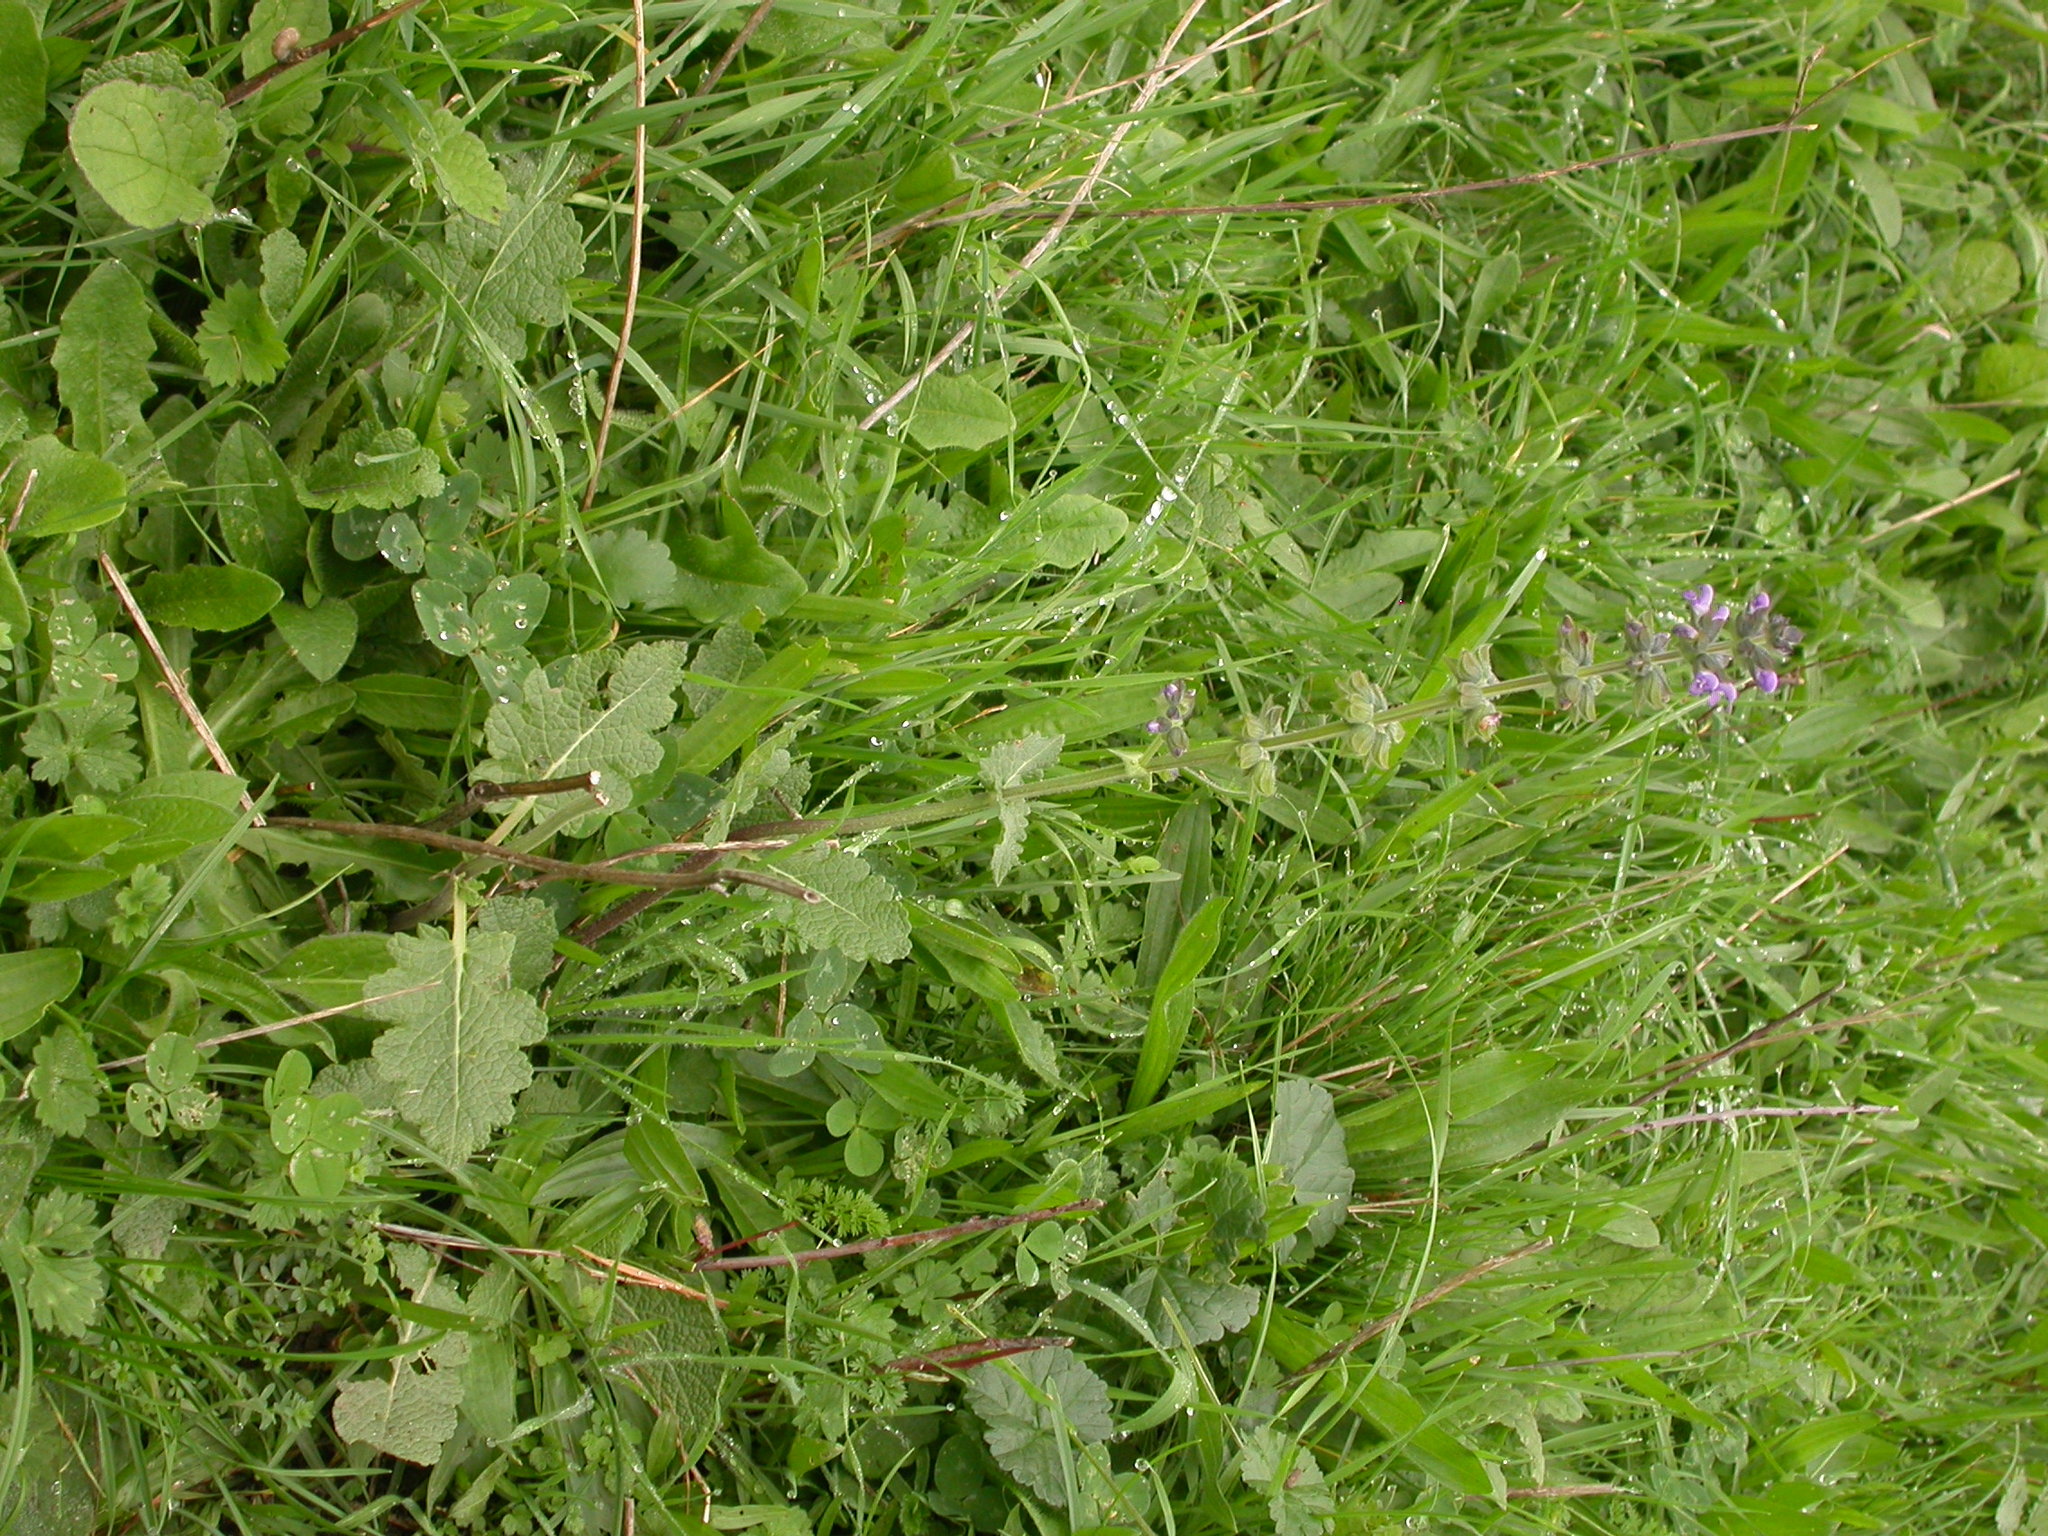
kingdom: Plantae
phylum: Tracheophyta
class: Magnoliopsida
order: Lamiales
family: Lamiaceae
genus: Salvia
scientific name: Salvia verbenaca
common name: Wild clary
